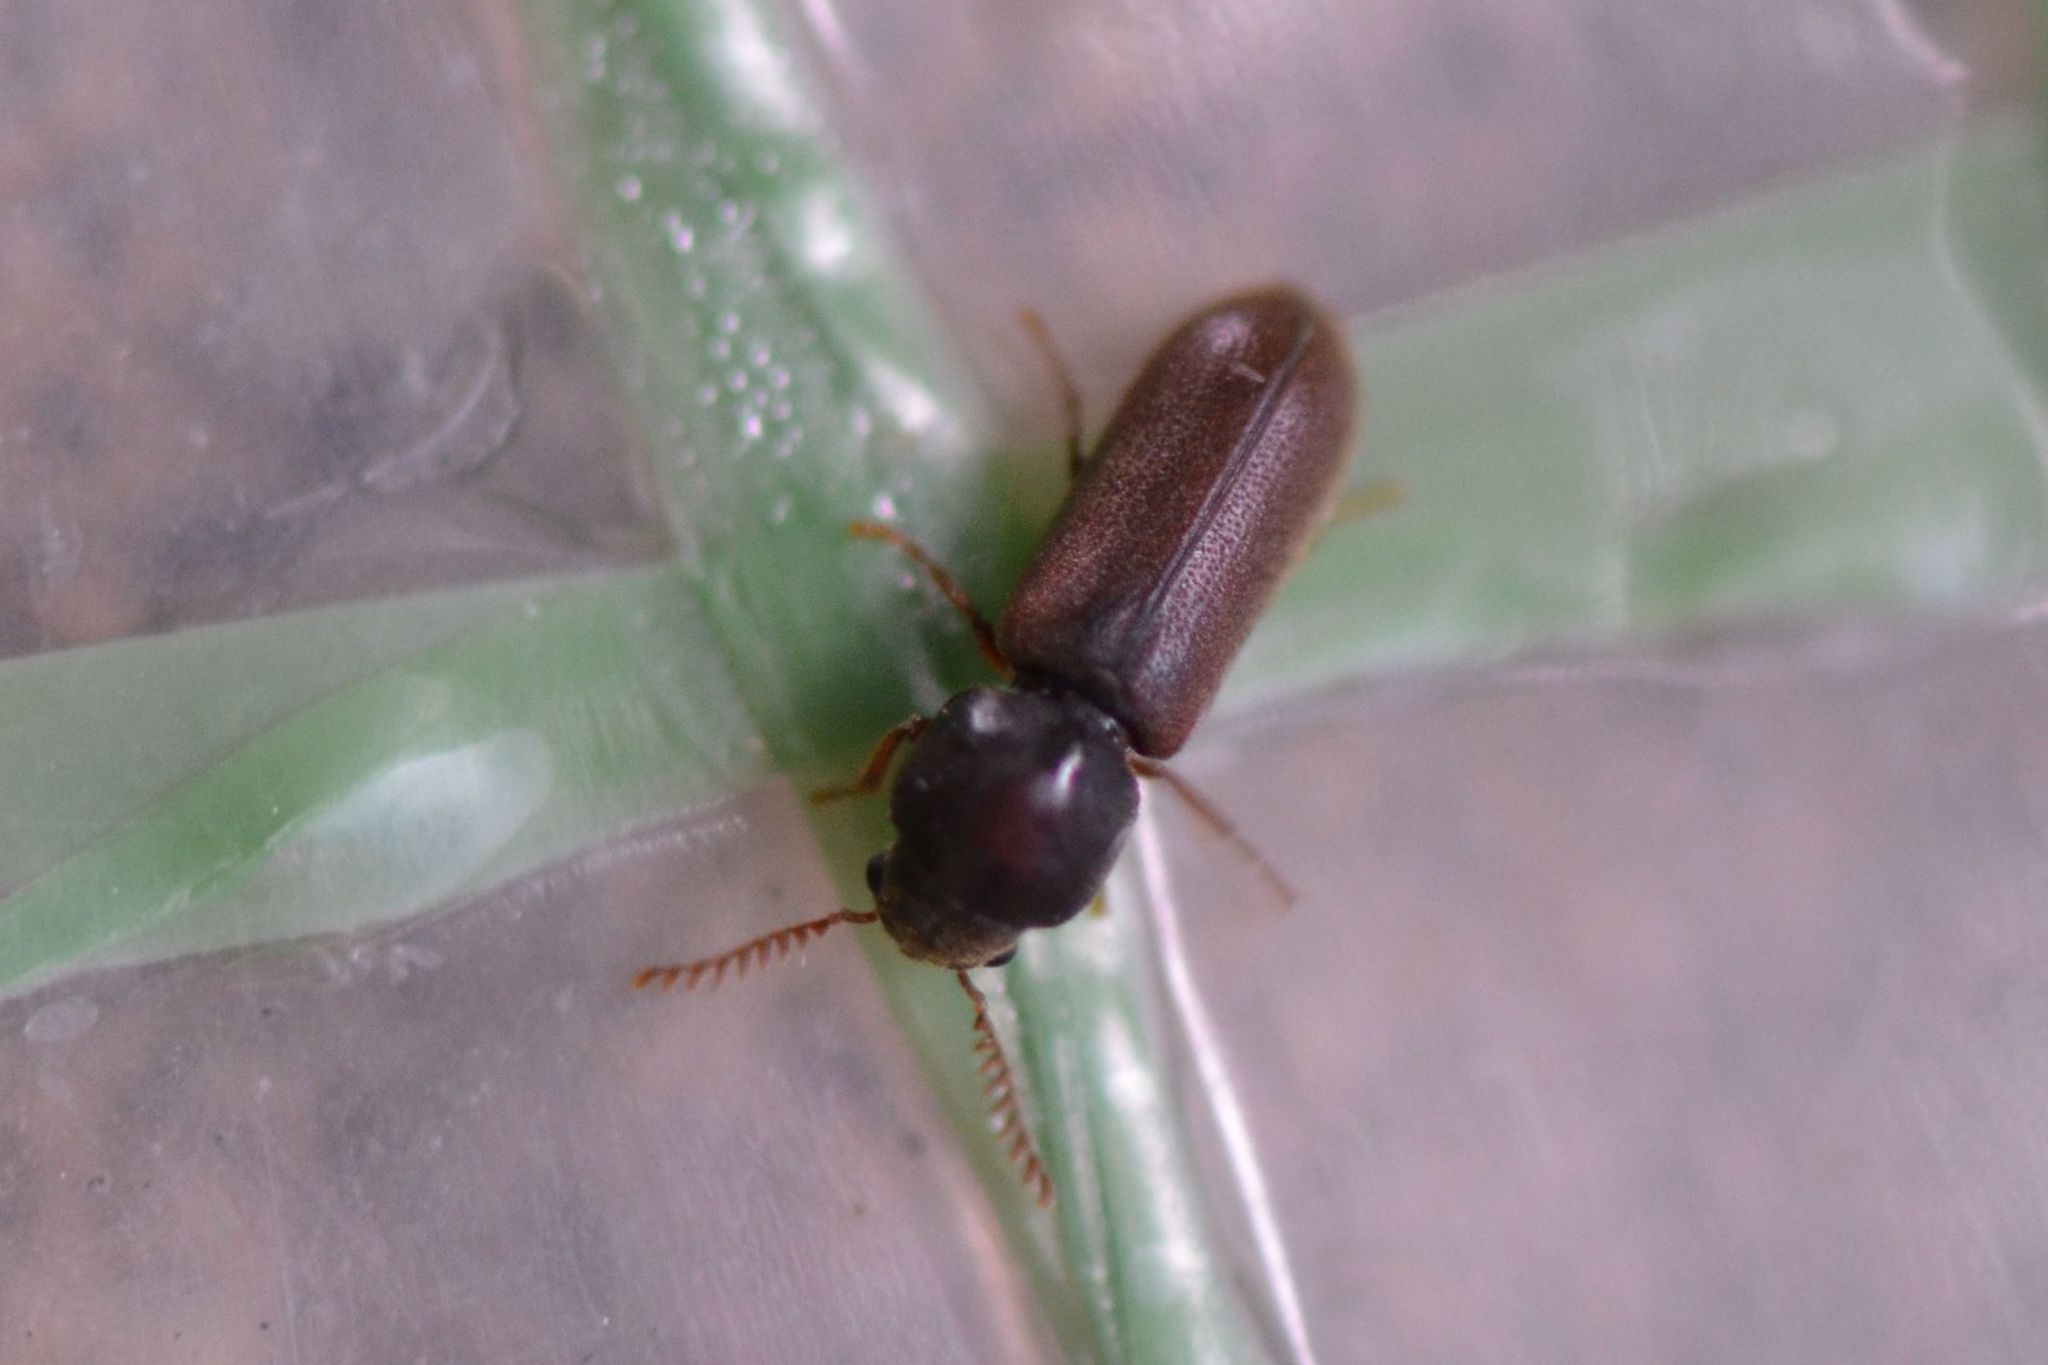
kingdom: Animalia
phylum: Arthropoda
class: Insecta
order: Coleoptera
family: Anobiidae
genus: Ptilinus
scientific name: Ptilinus pectinicornis
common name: Fan-bearing wood-borer
